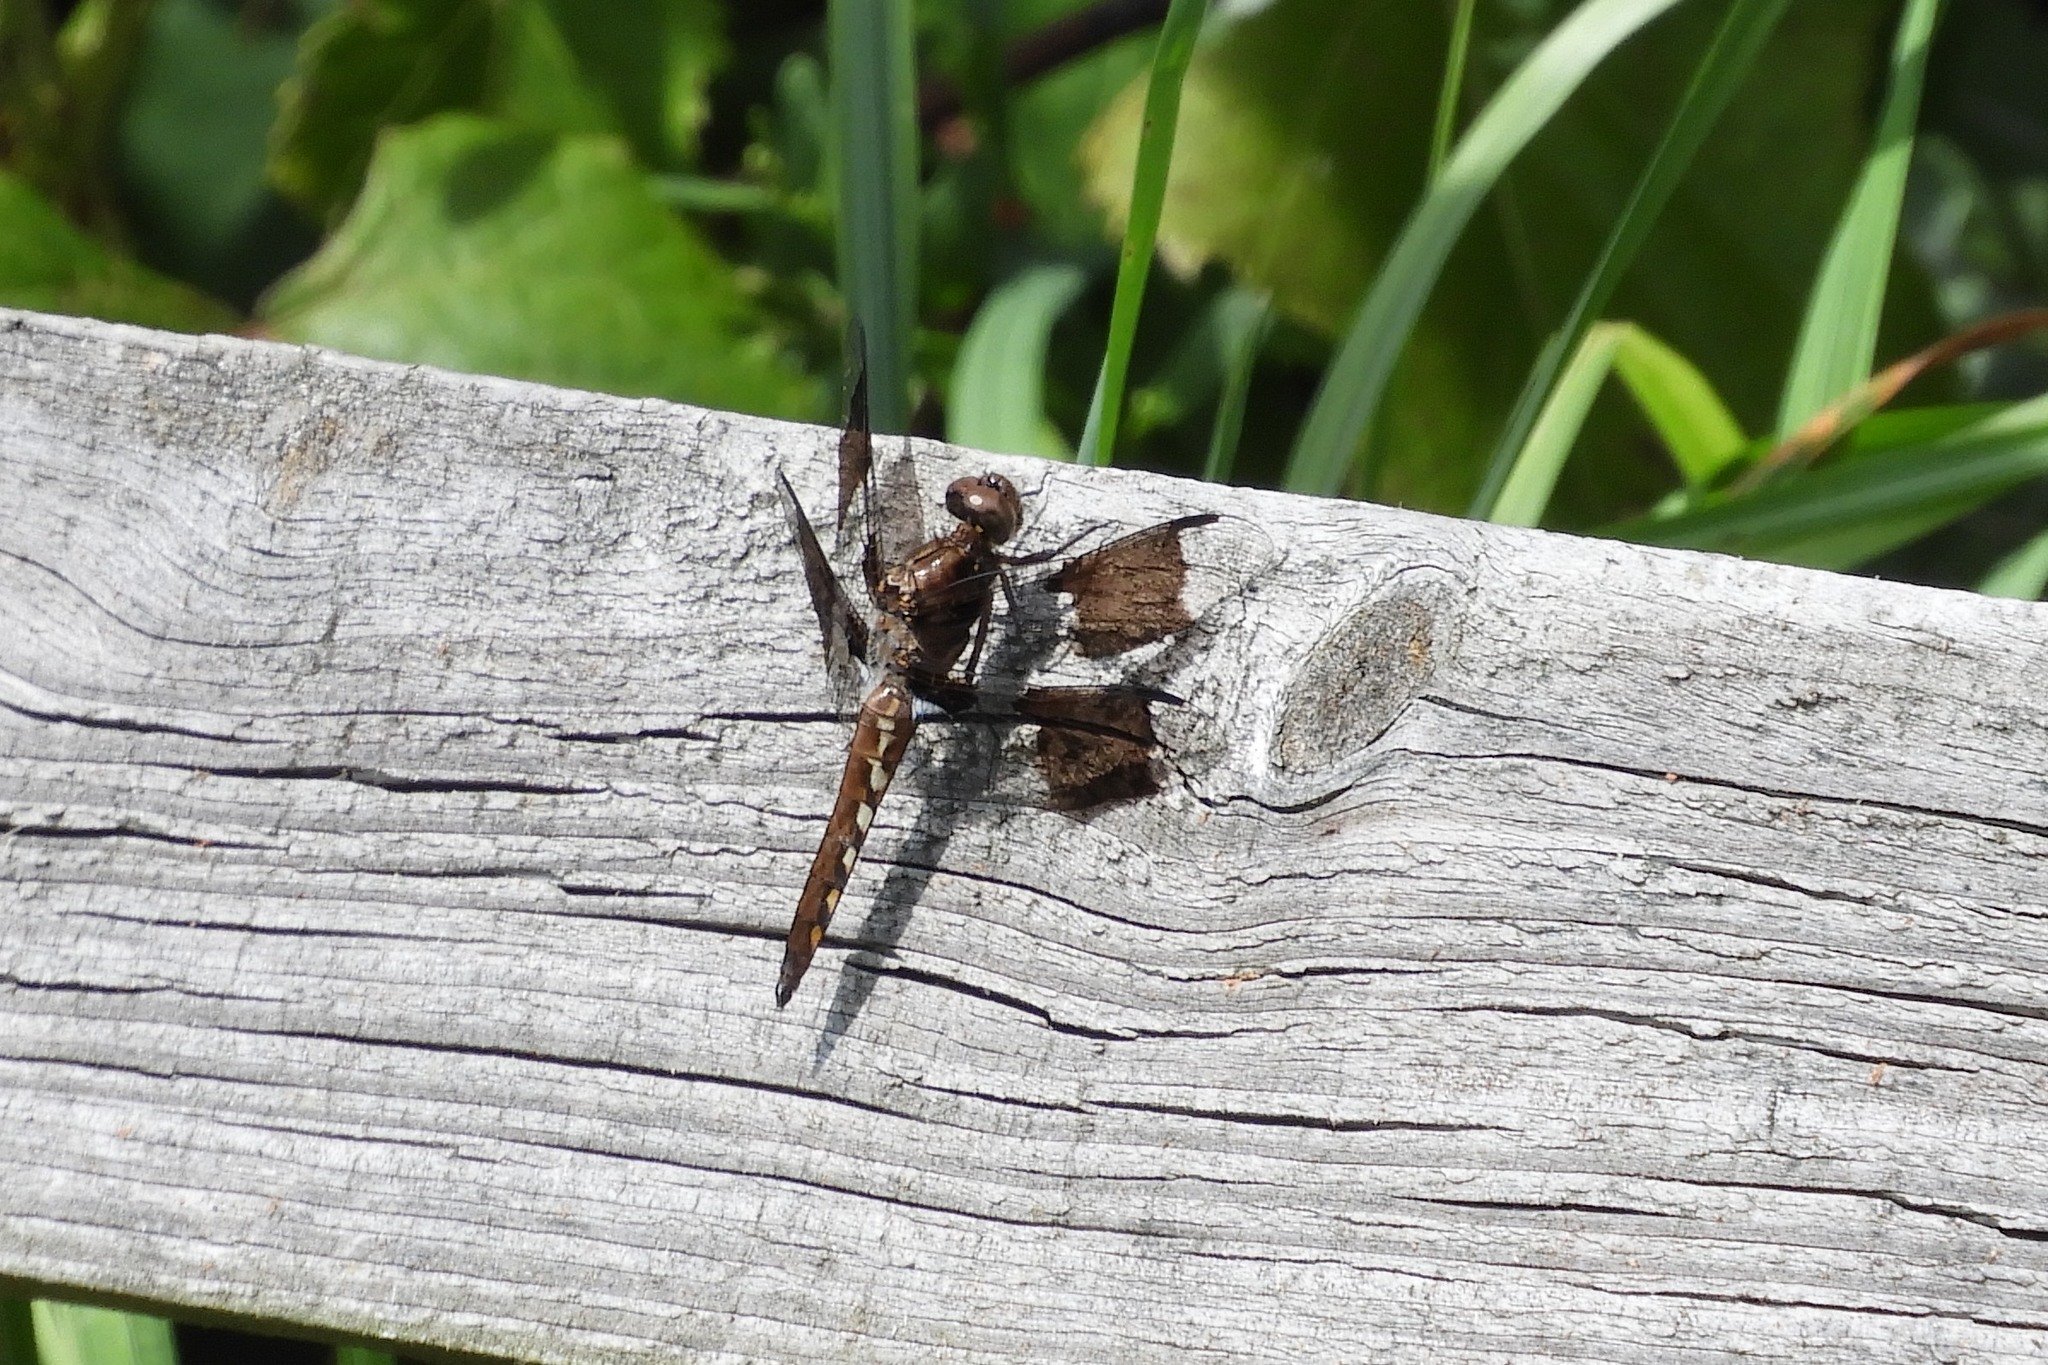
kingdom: Animalia
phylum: Arthropoda
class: Insecta
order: Odonata
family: Libellulidae
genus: Plathemis
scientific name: Plathemis lydia
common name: Common whitetail
